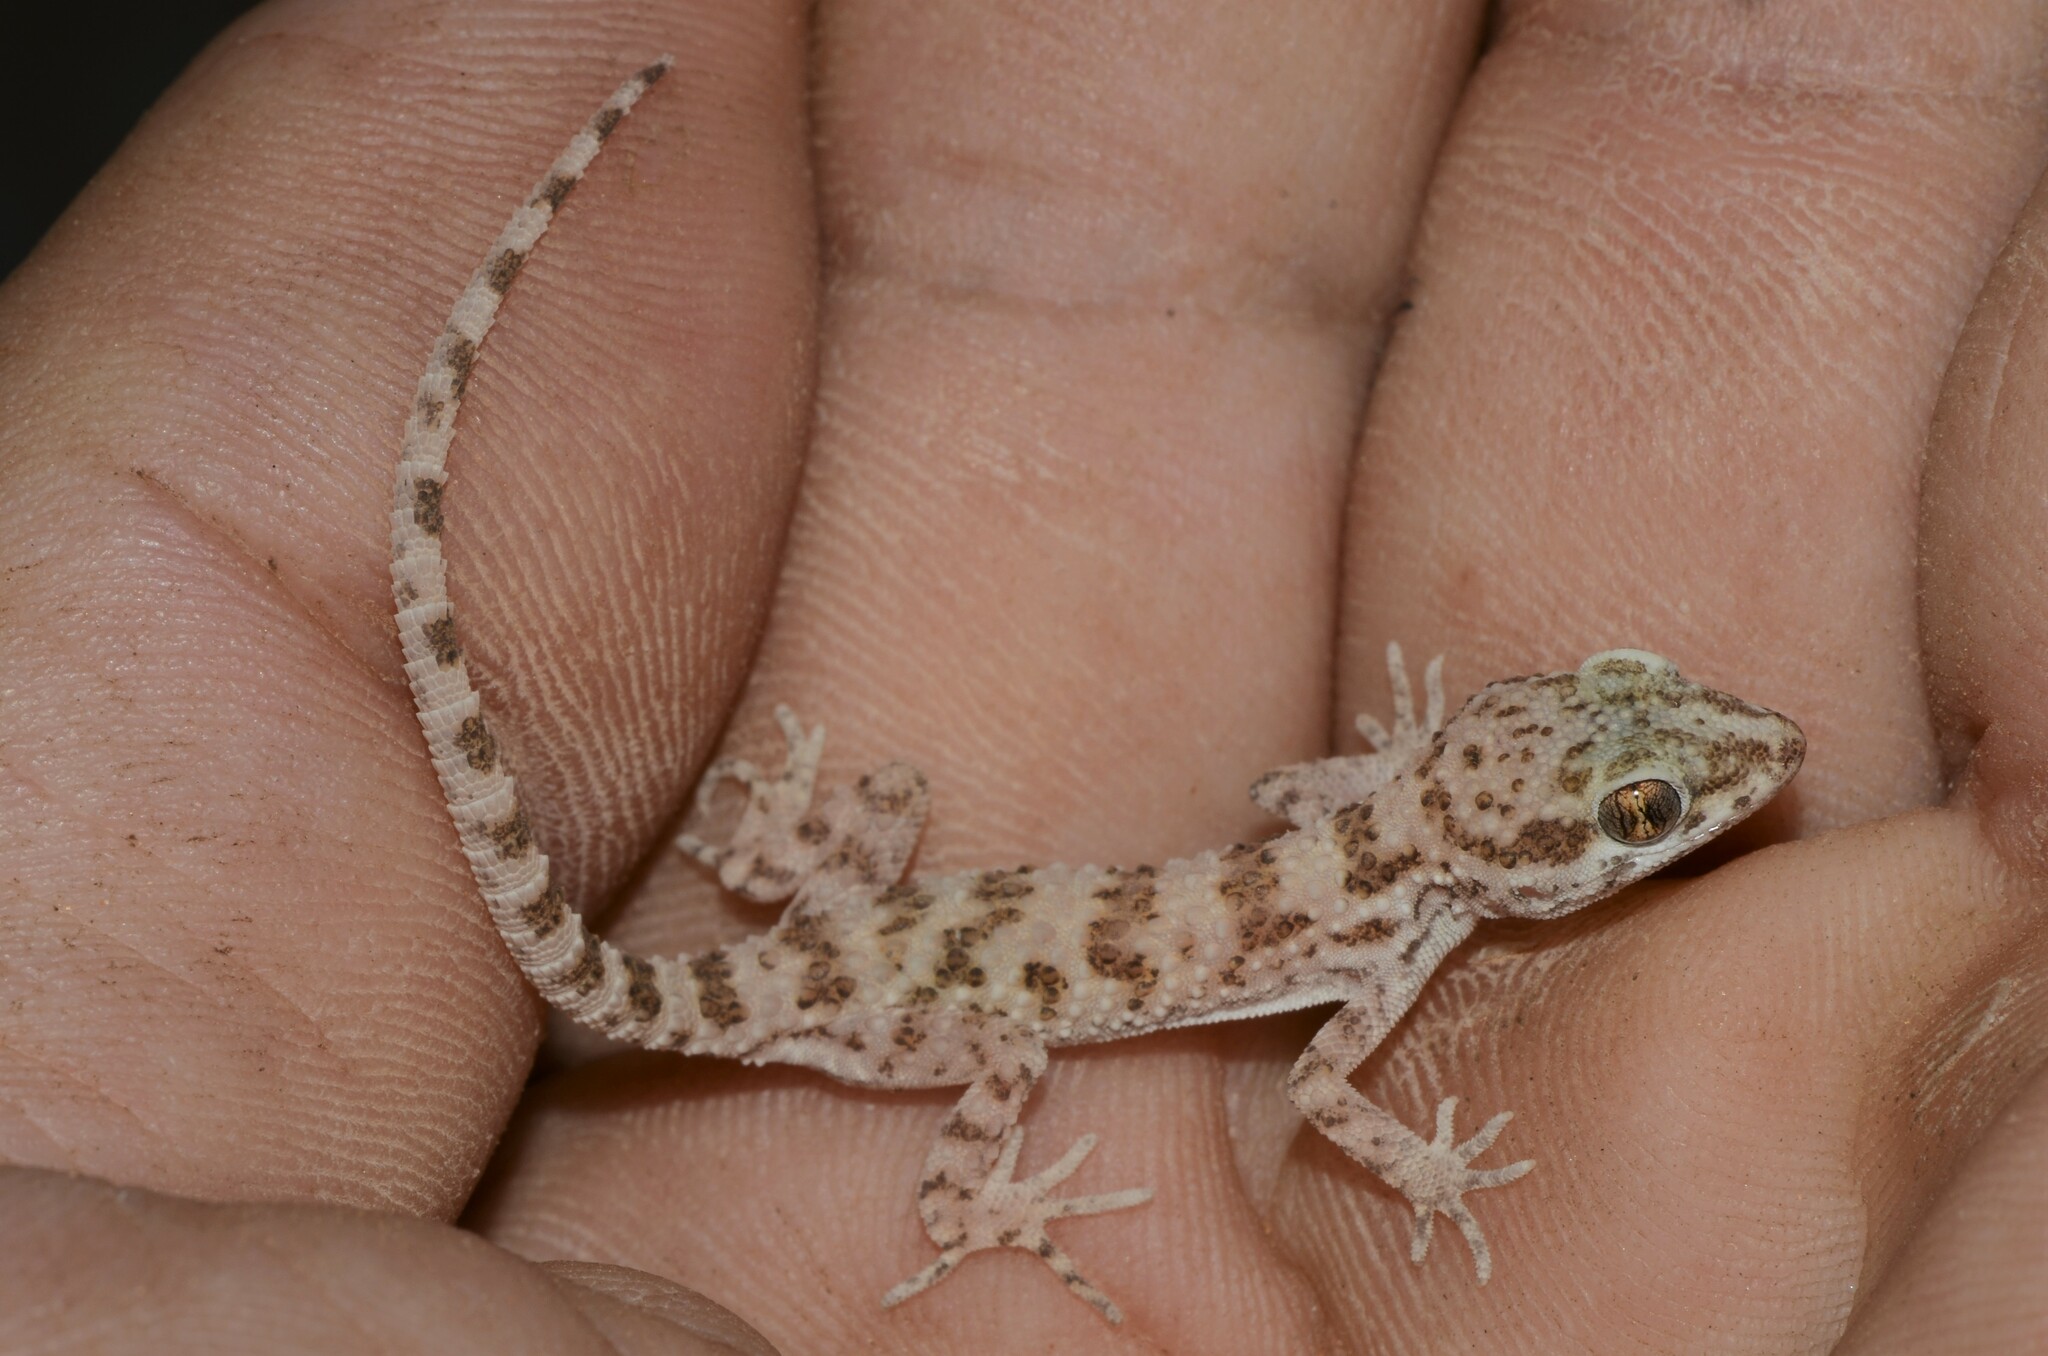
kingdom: Animalia
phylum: Chordata
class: Squamata
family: Gekkonidae
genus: Bunopus
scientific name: Bunopus tuberculatus
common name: Southern tuberculated gecko
